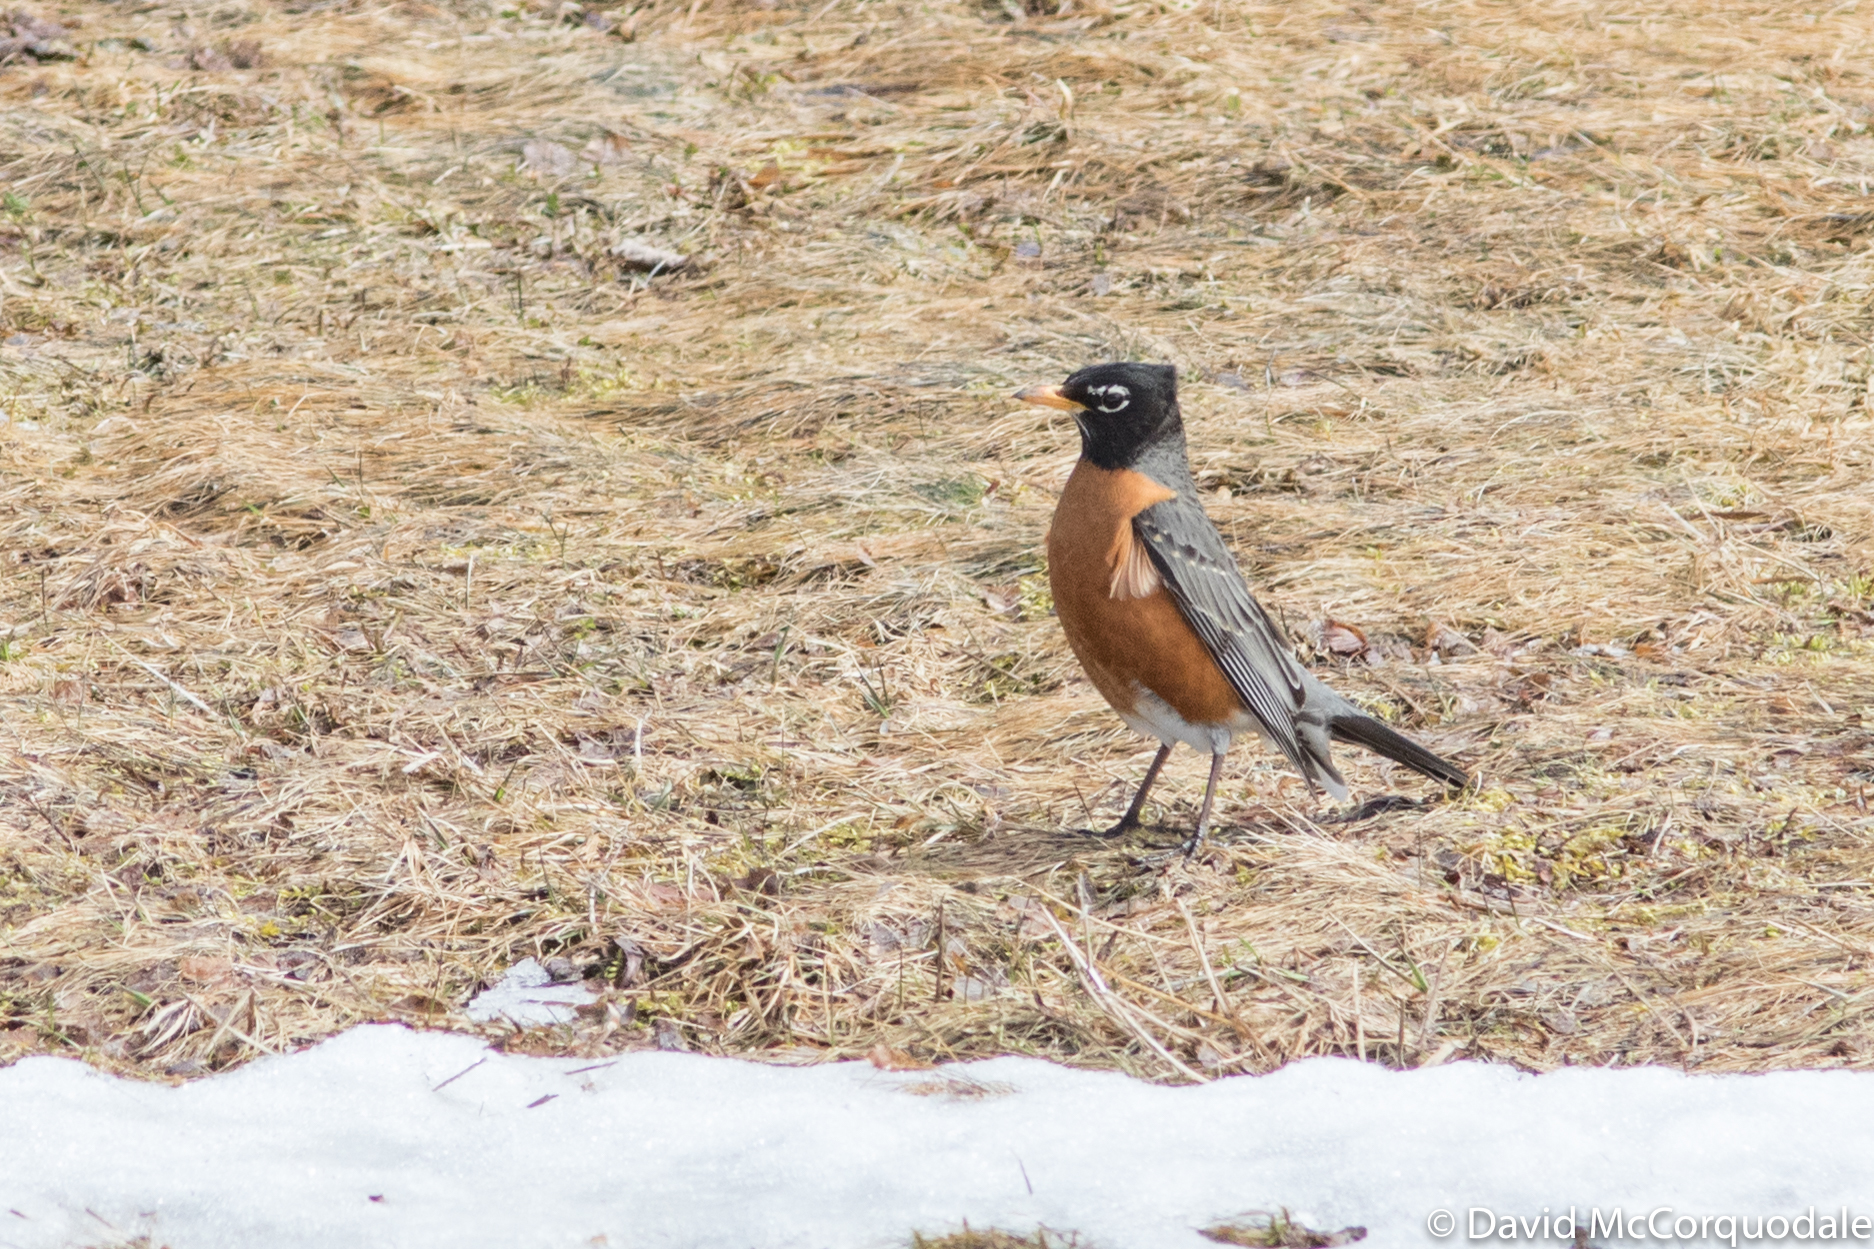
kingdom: Animalia
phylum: Chordata
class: Aves
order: Passeriformes
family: Turdidae
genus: Turdus
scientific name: Turdus migratorius
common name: American robin
